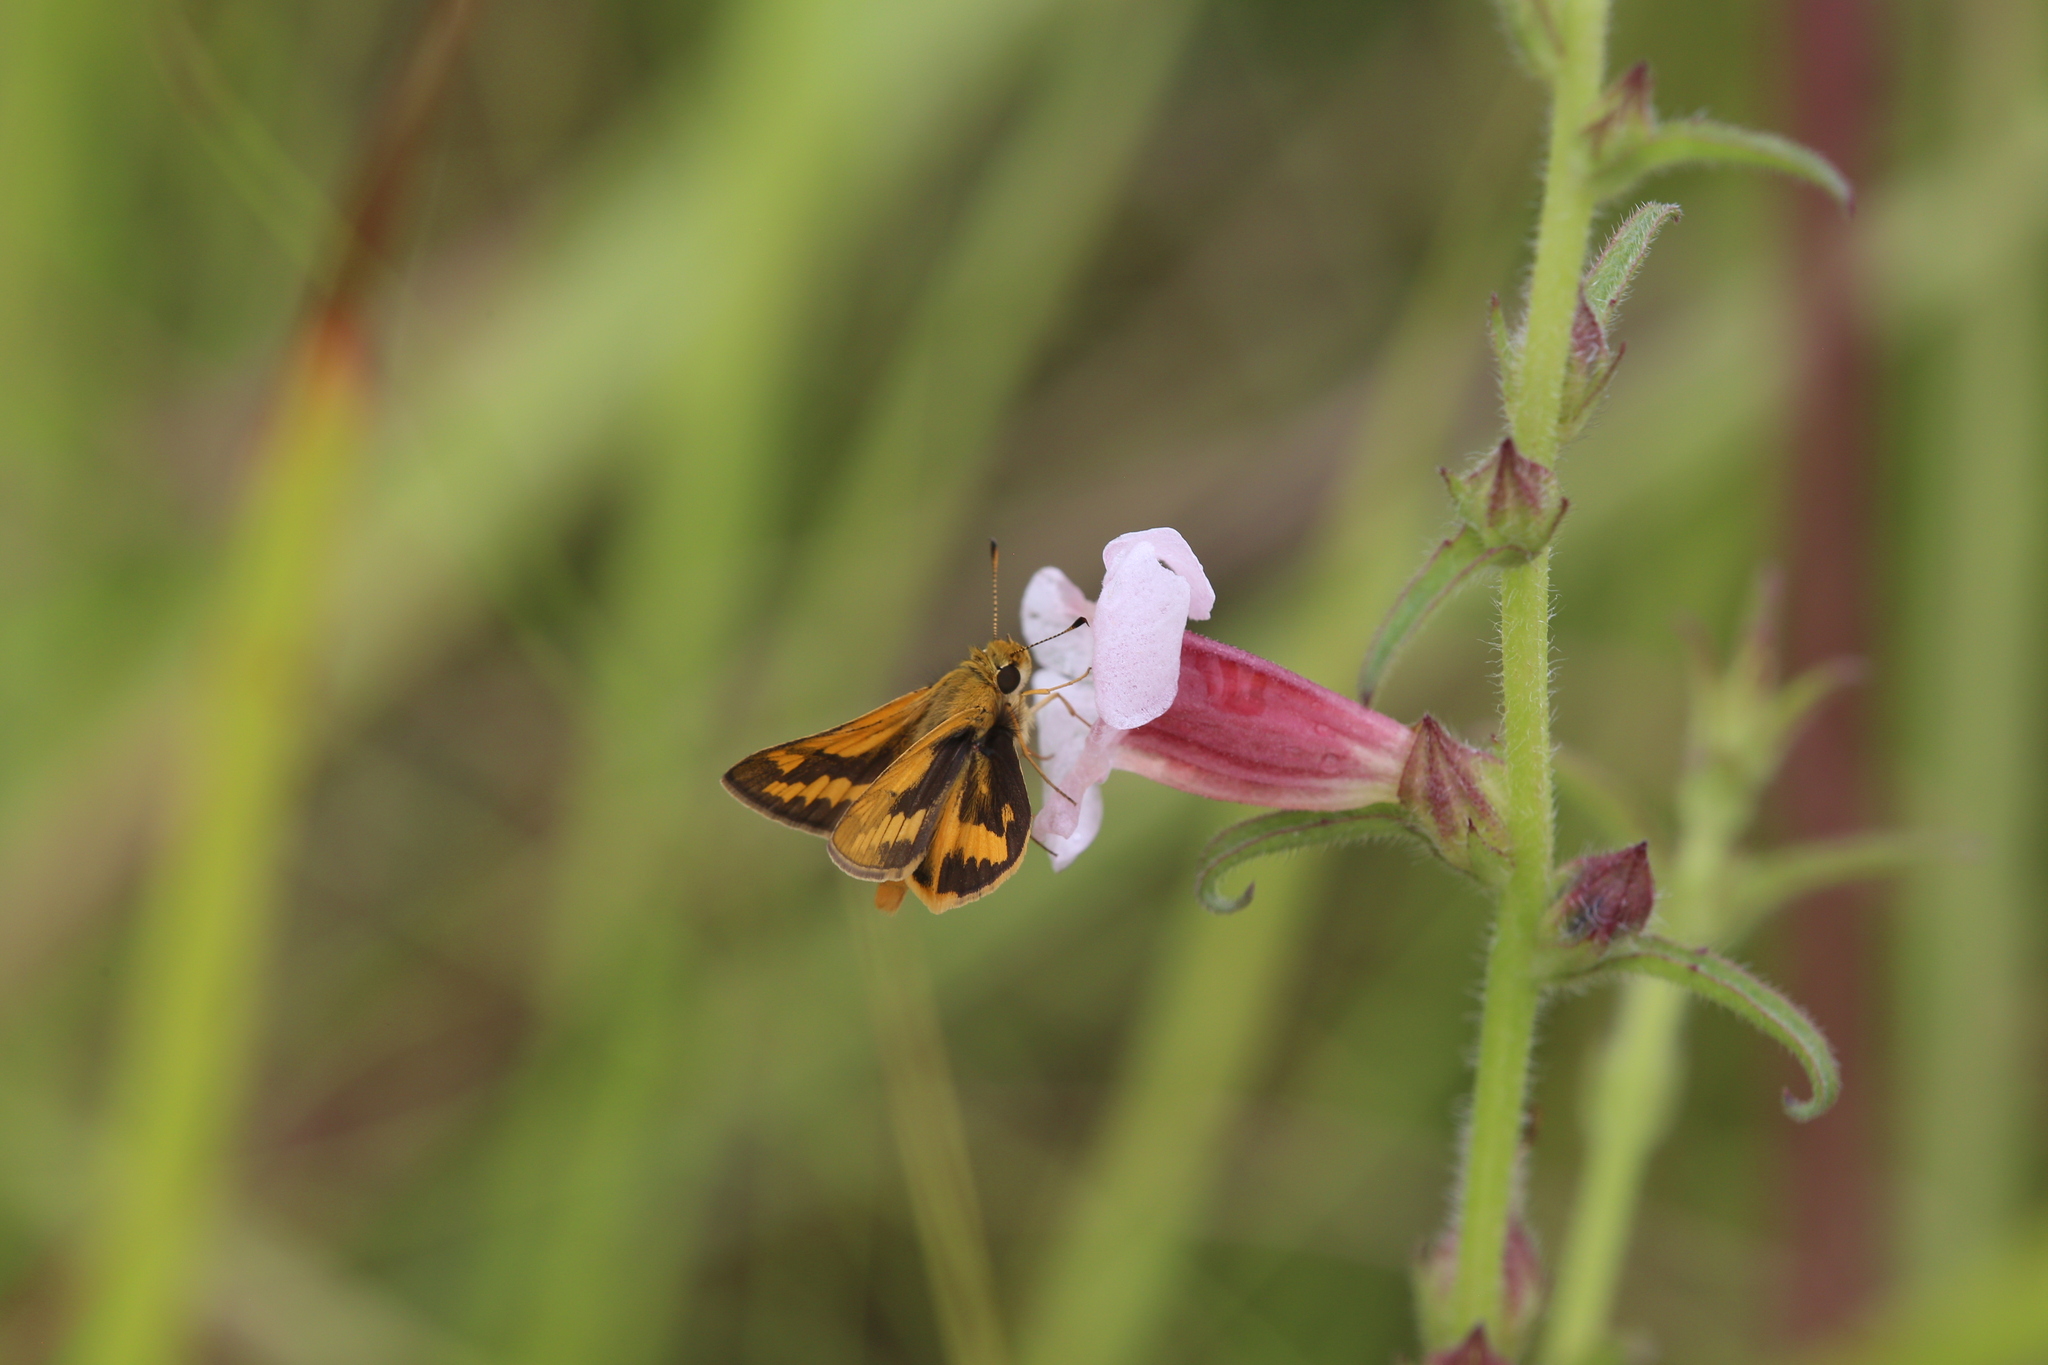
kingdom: Animalia
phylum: Arthropoda
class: Insecta
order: Lepidoptera
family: Hesperiidae
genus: Ocybadistes
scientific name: Ocybadistes hypomeloma
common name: Pale orange dart
